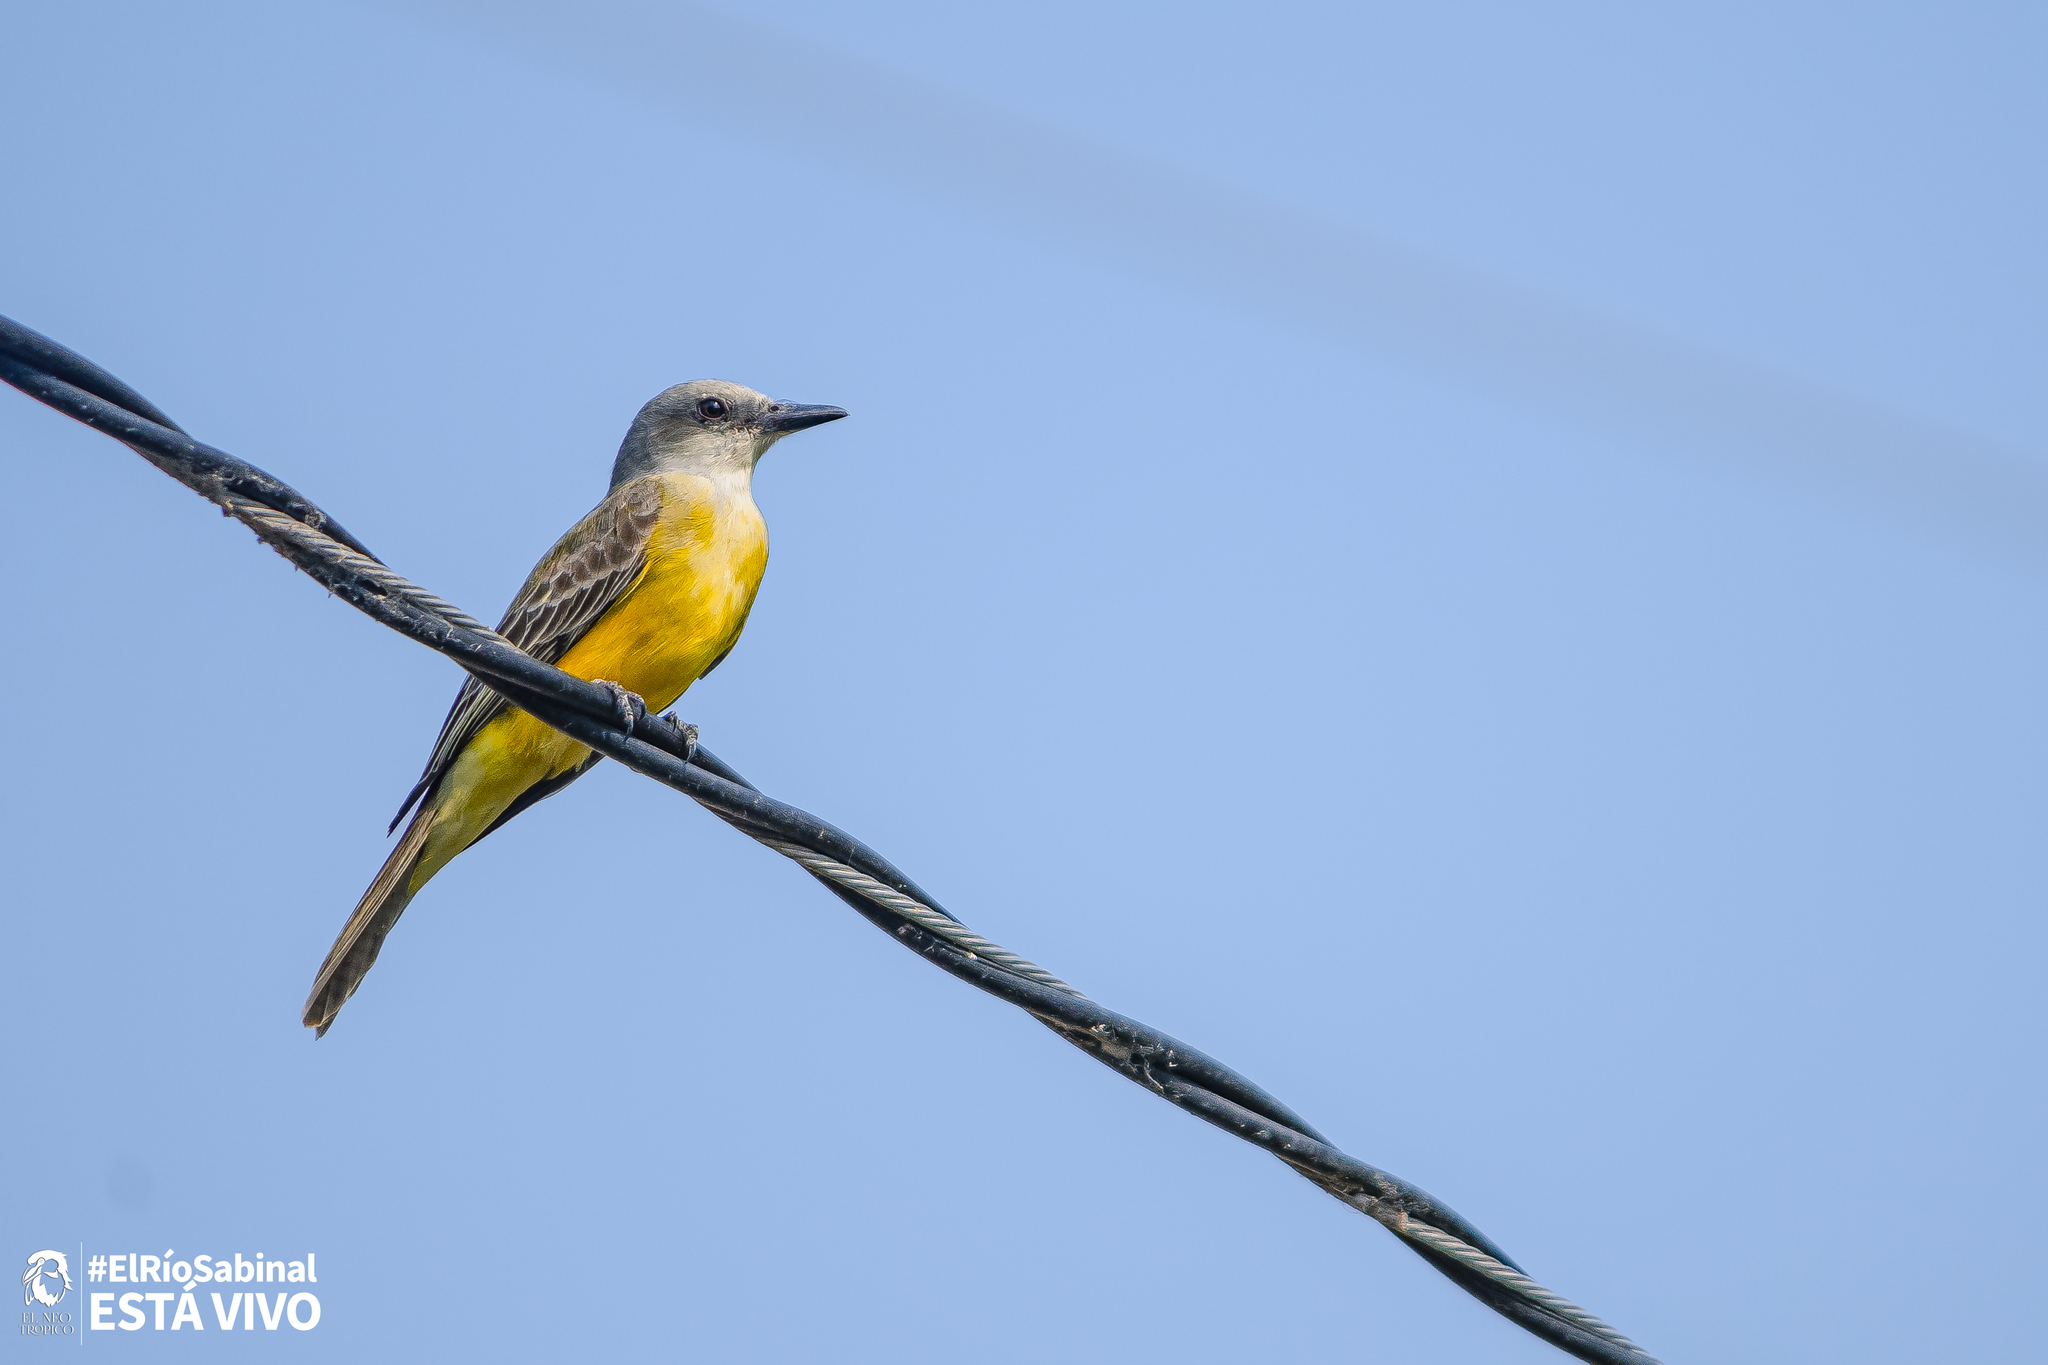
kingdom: Animalia
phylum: Chordata
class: Aves
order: Passeriformes
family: Tyrannidae
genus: Tyrannus
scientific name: Tyrannus melancholicus
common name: Tropical kingbird
